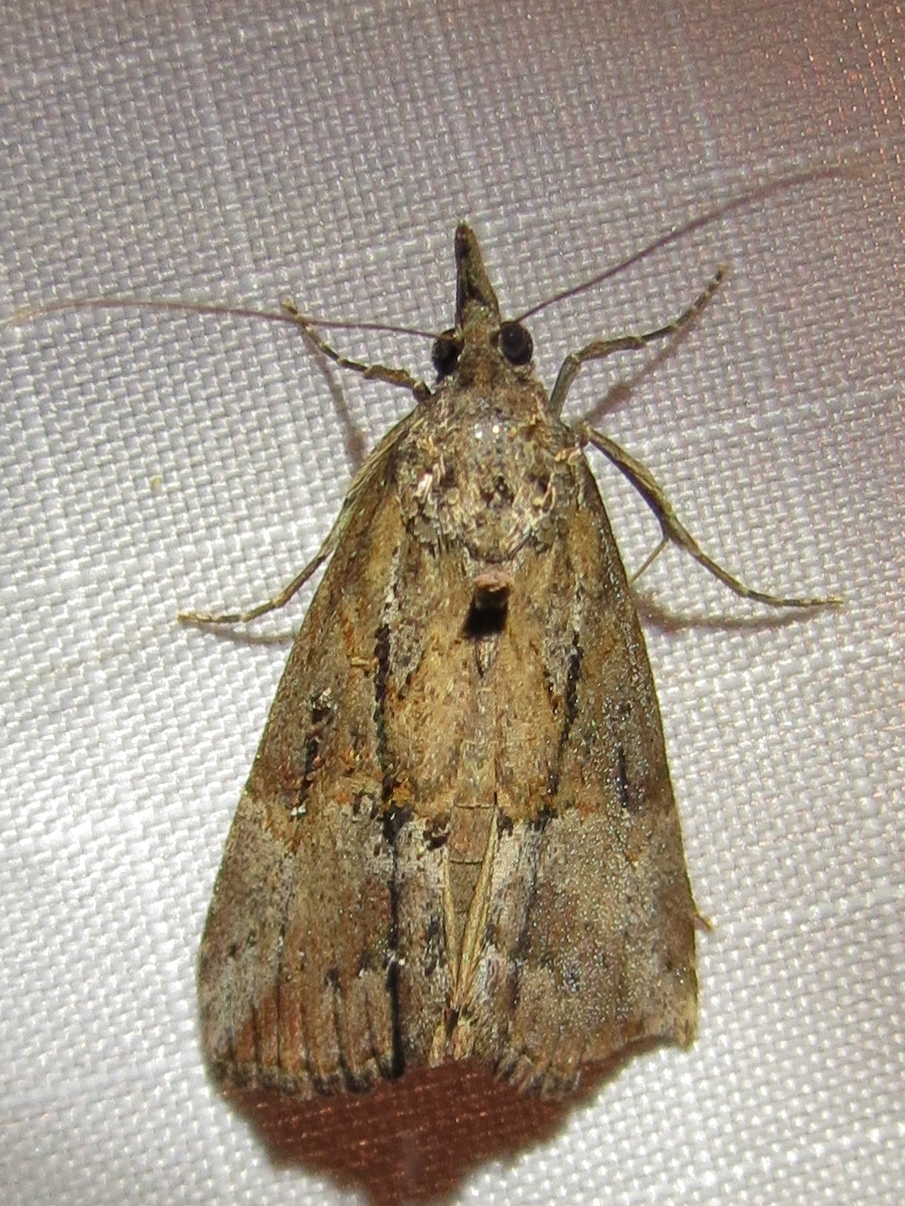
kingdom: Animalia
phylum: Arthropoda
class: Insecta
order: Lepidoptera
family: Erebidae
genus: Hypena
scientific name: Hypena scabra
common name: Green cloverworm
